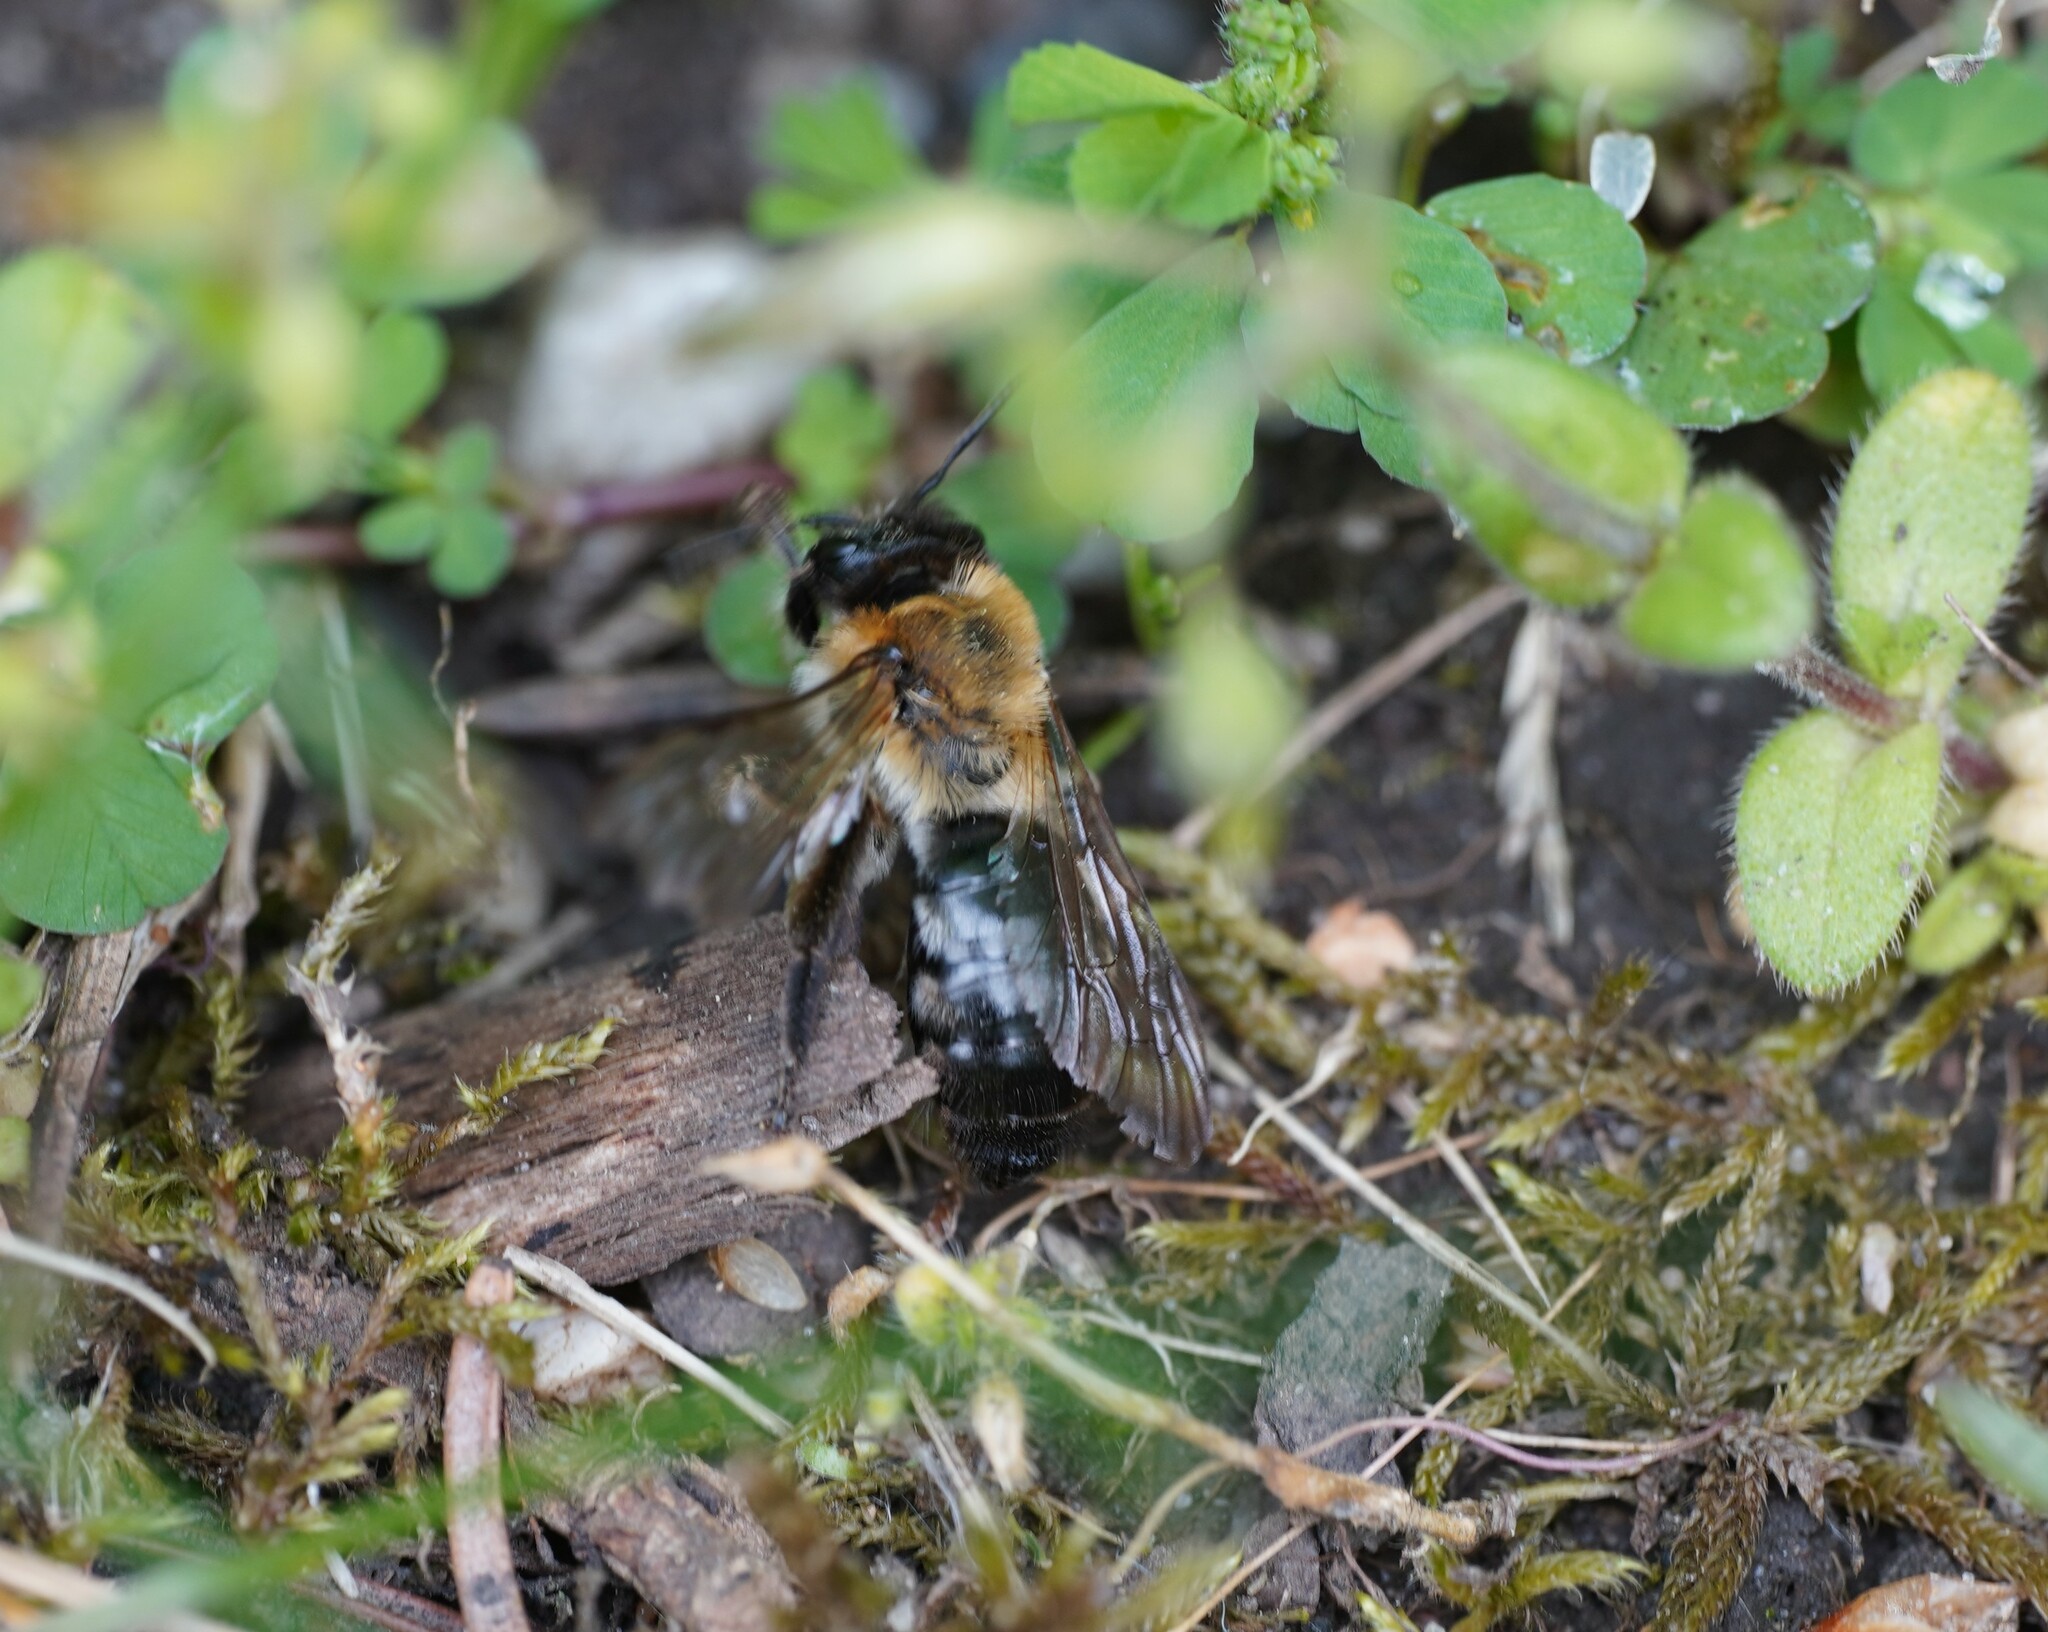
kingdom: Animalia
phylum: Arthropoda
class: Insecta
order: Hymenoptera
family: Andrenidae
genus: Andrena
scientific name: Andrena nitida
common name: Grey-patched mining bee
